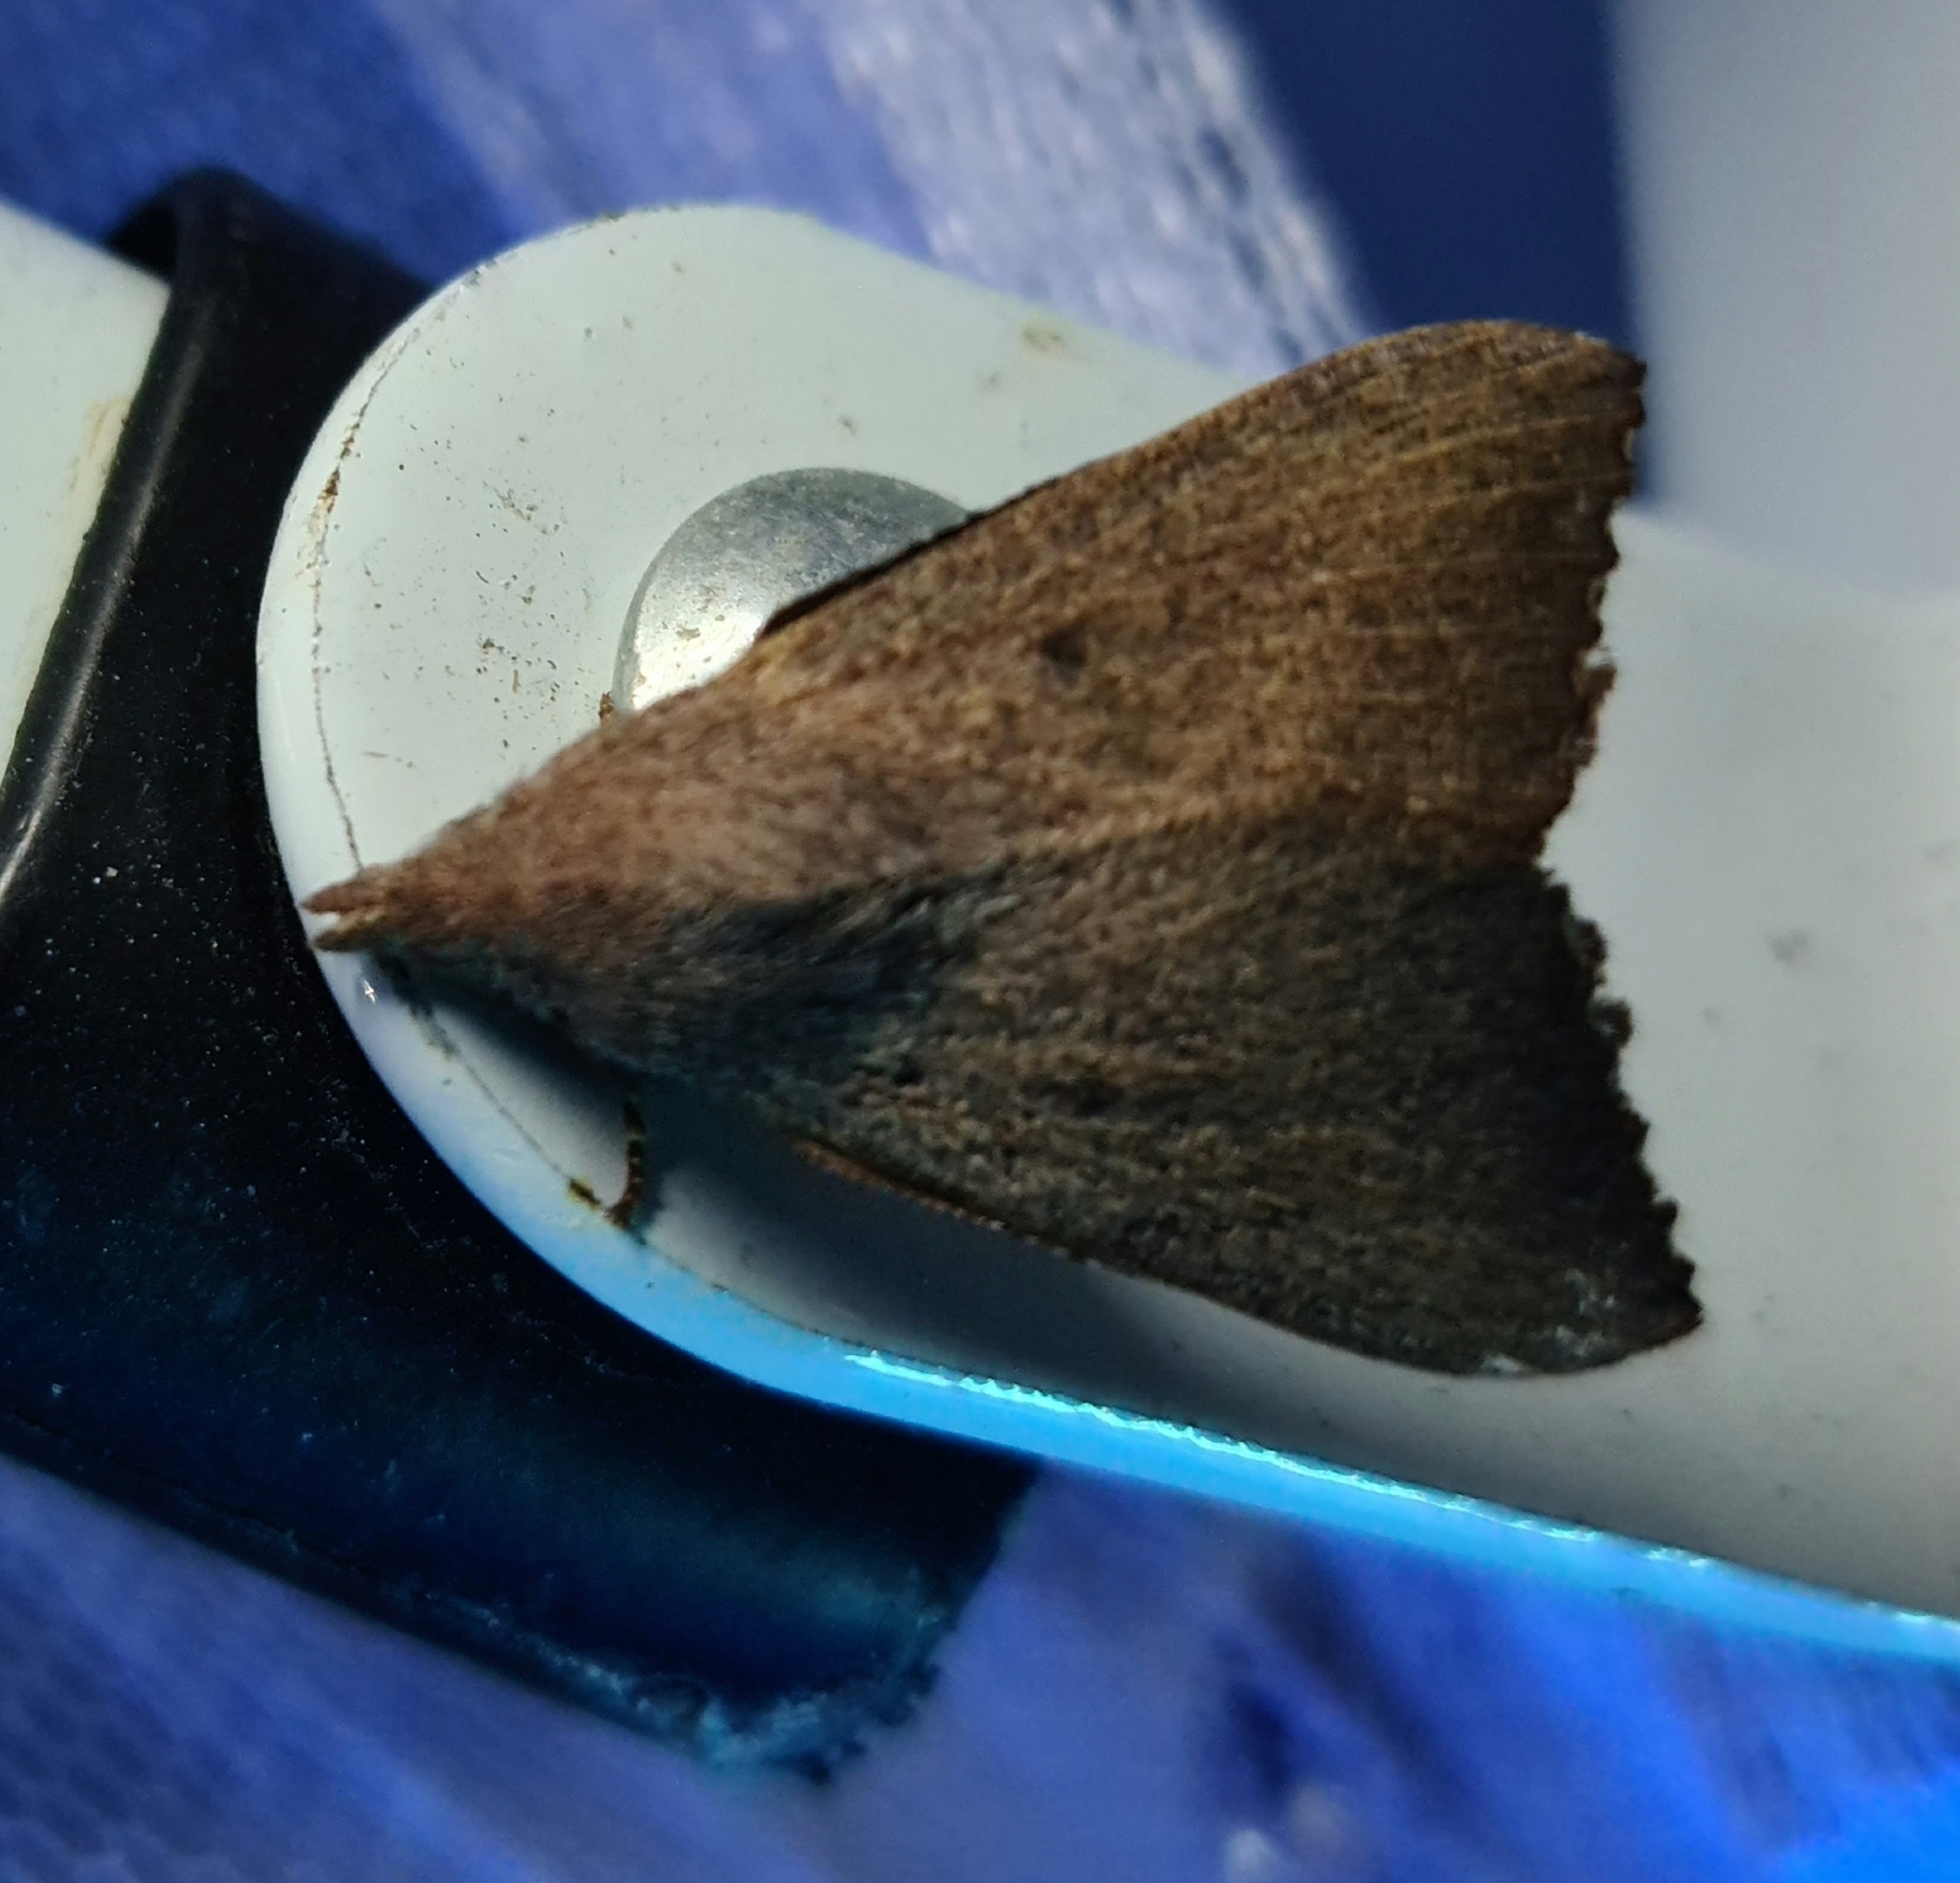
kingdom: Animalia
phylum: Arthropoda
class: Insecta
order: Lepidoptera
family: Lasiocampidae
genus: Pararguda
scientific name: Pararguda crenulata
